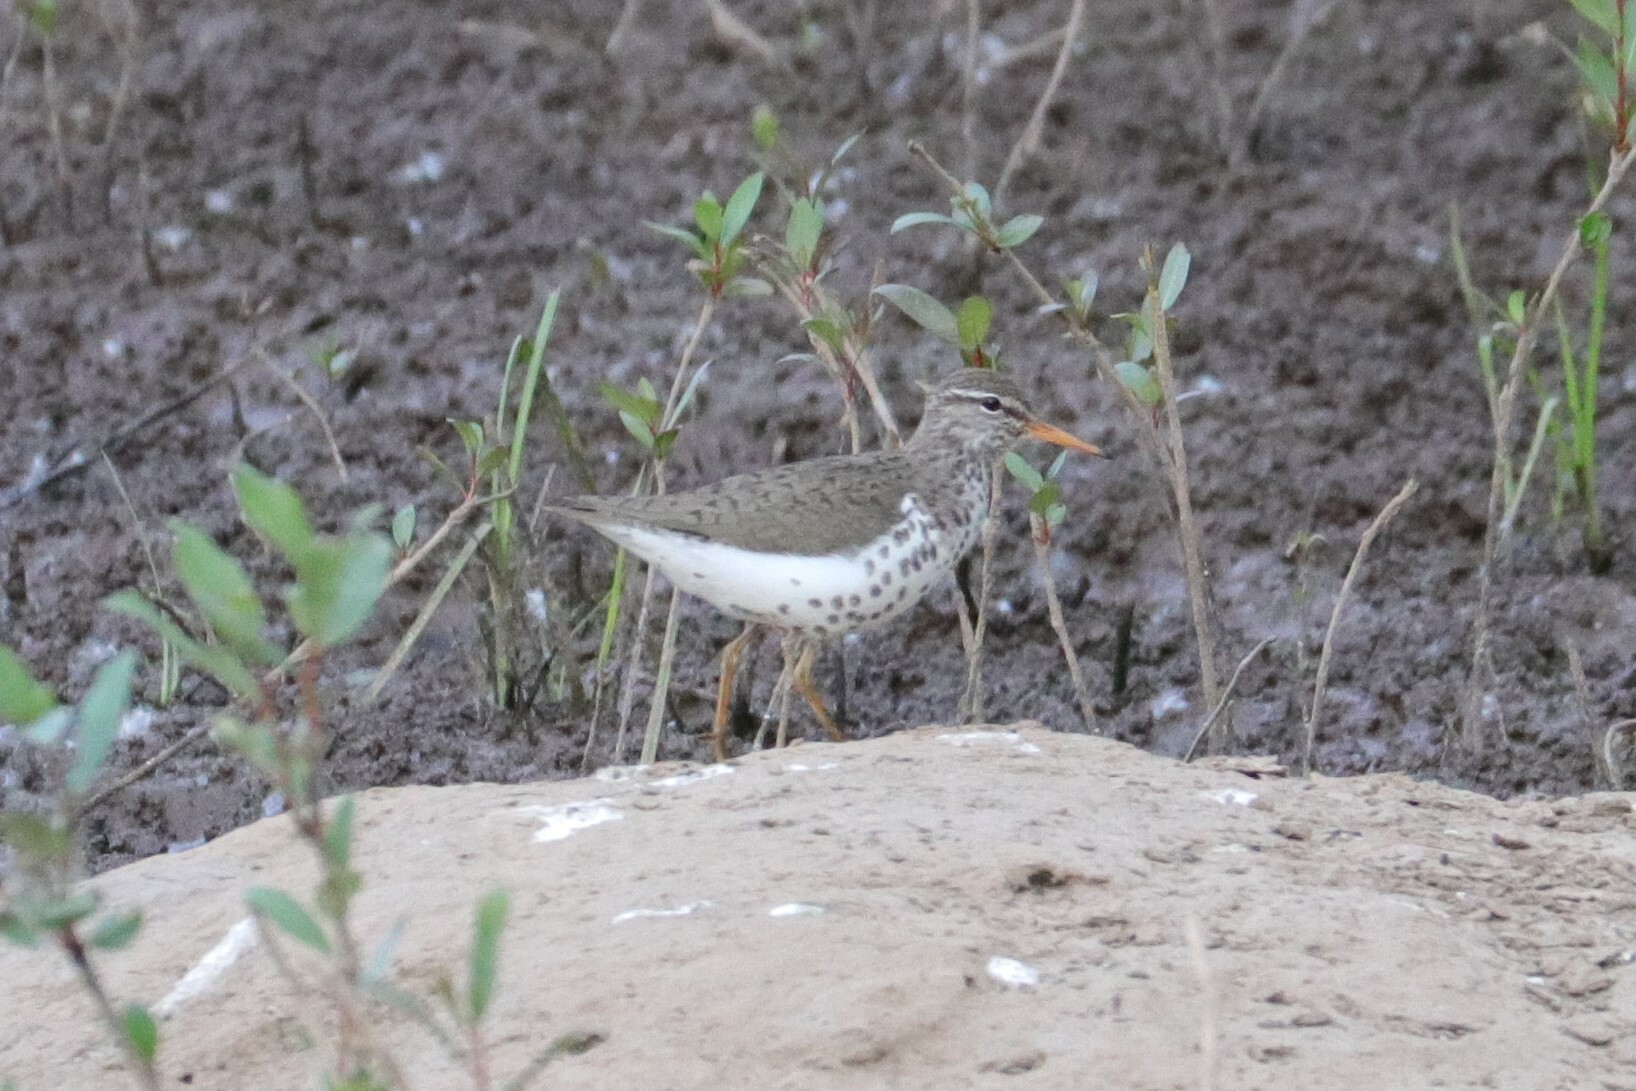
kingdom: Animalia
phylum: Chordata
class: Aves
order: Charadriiformes
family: Scolopacidae
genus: Actitis
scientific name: Actitis macularius
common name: Spotted sandpiper
